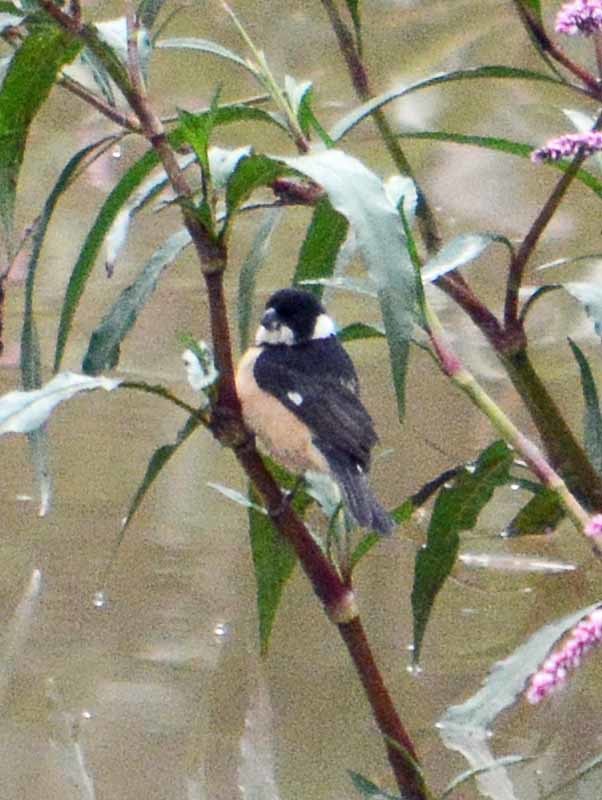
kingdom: Animalia
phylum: Chordata
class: Aves
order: Passeriformes
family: Thraupidae
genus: Sporophila
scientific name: Sporophila torqueola
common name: White-collared seedeater
